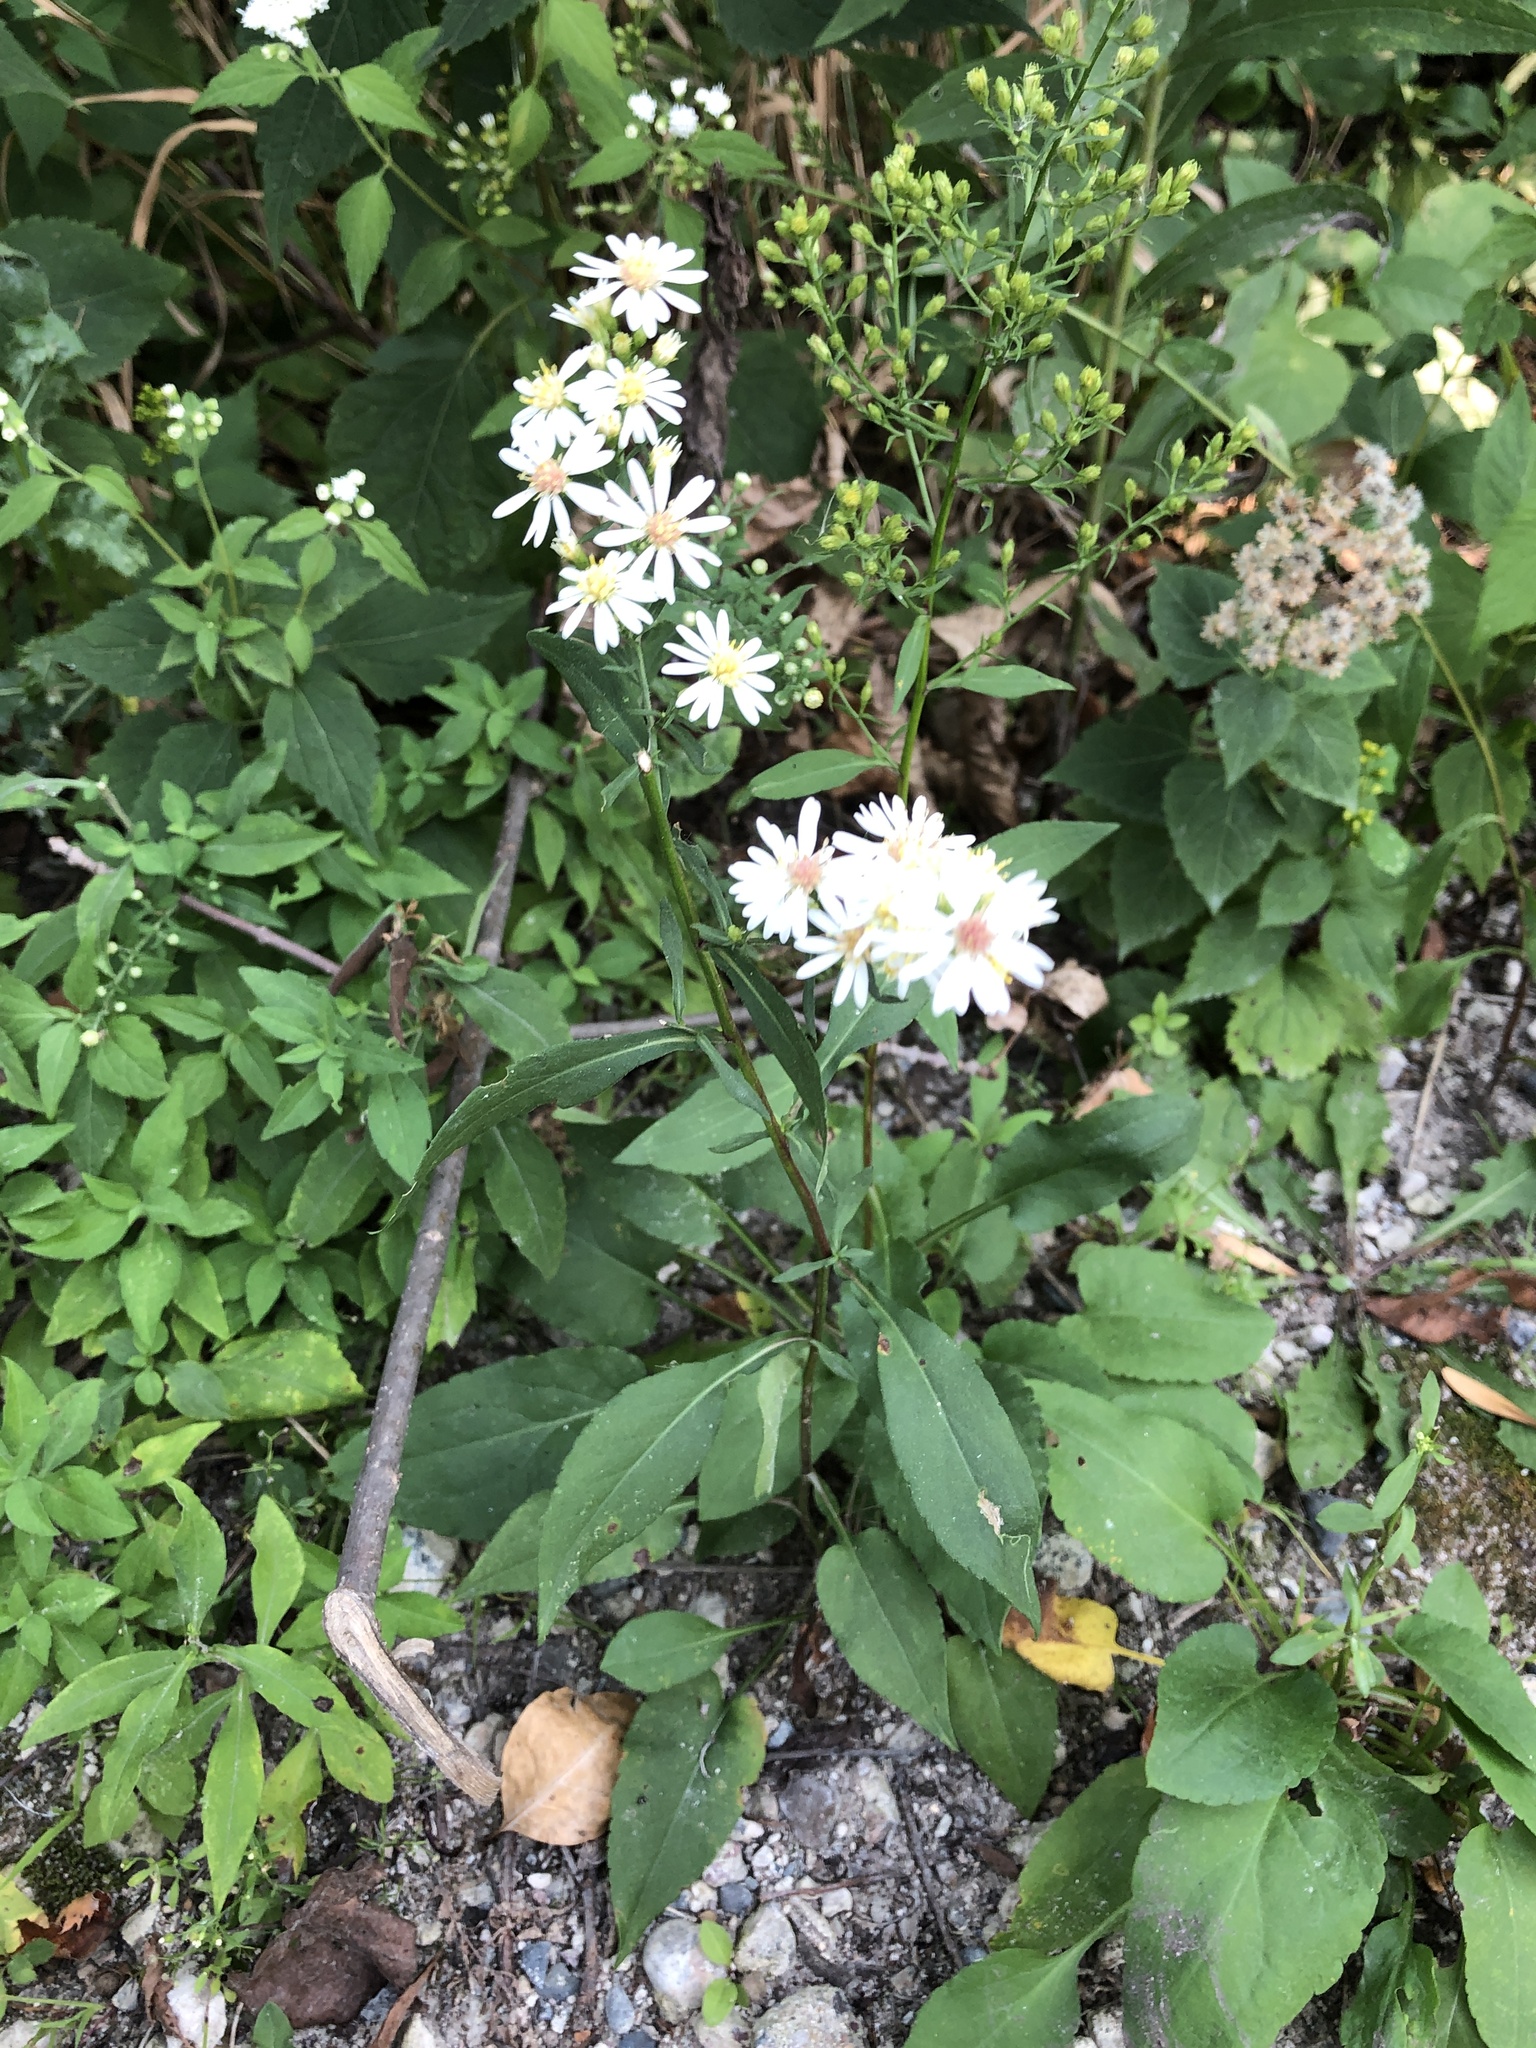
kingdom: Plantae
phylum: Tracheophyta
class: Magnoliopsida
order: Asterales
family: Asteraceae
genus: Symphyotrichum
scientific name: Symphyotrichum lanceolatum
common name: Panicled aster
